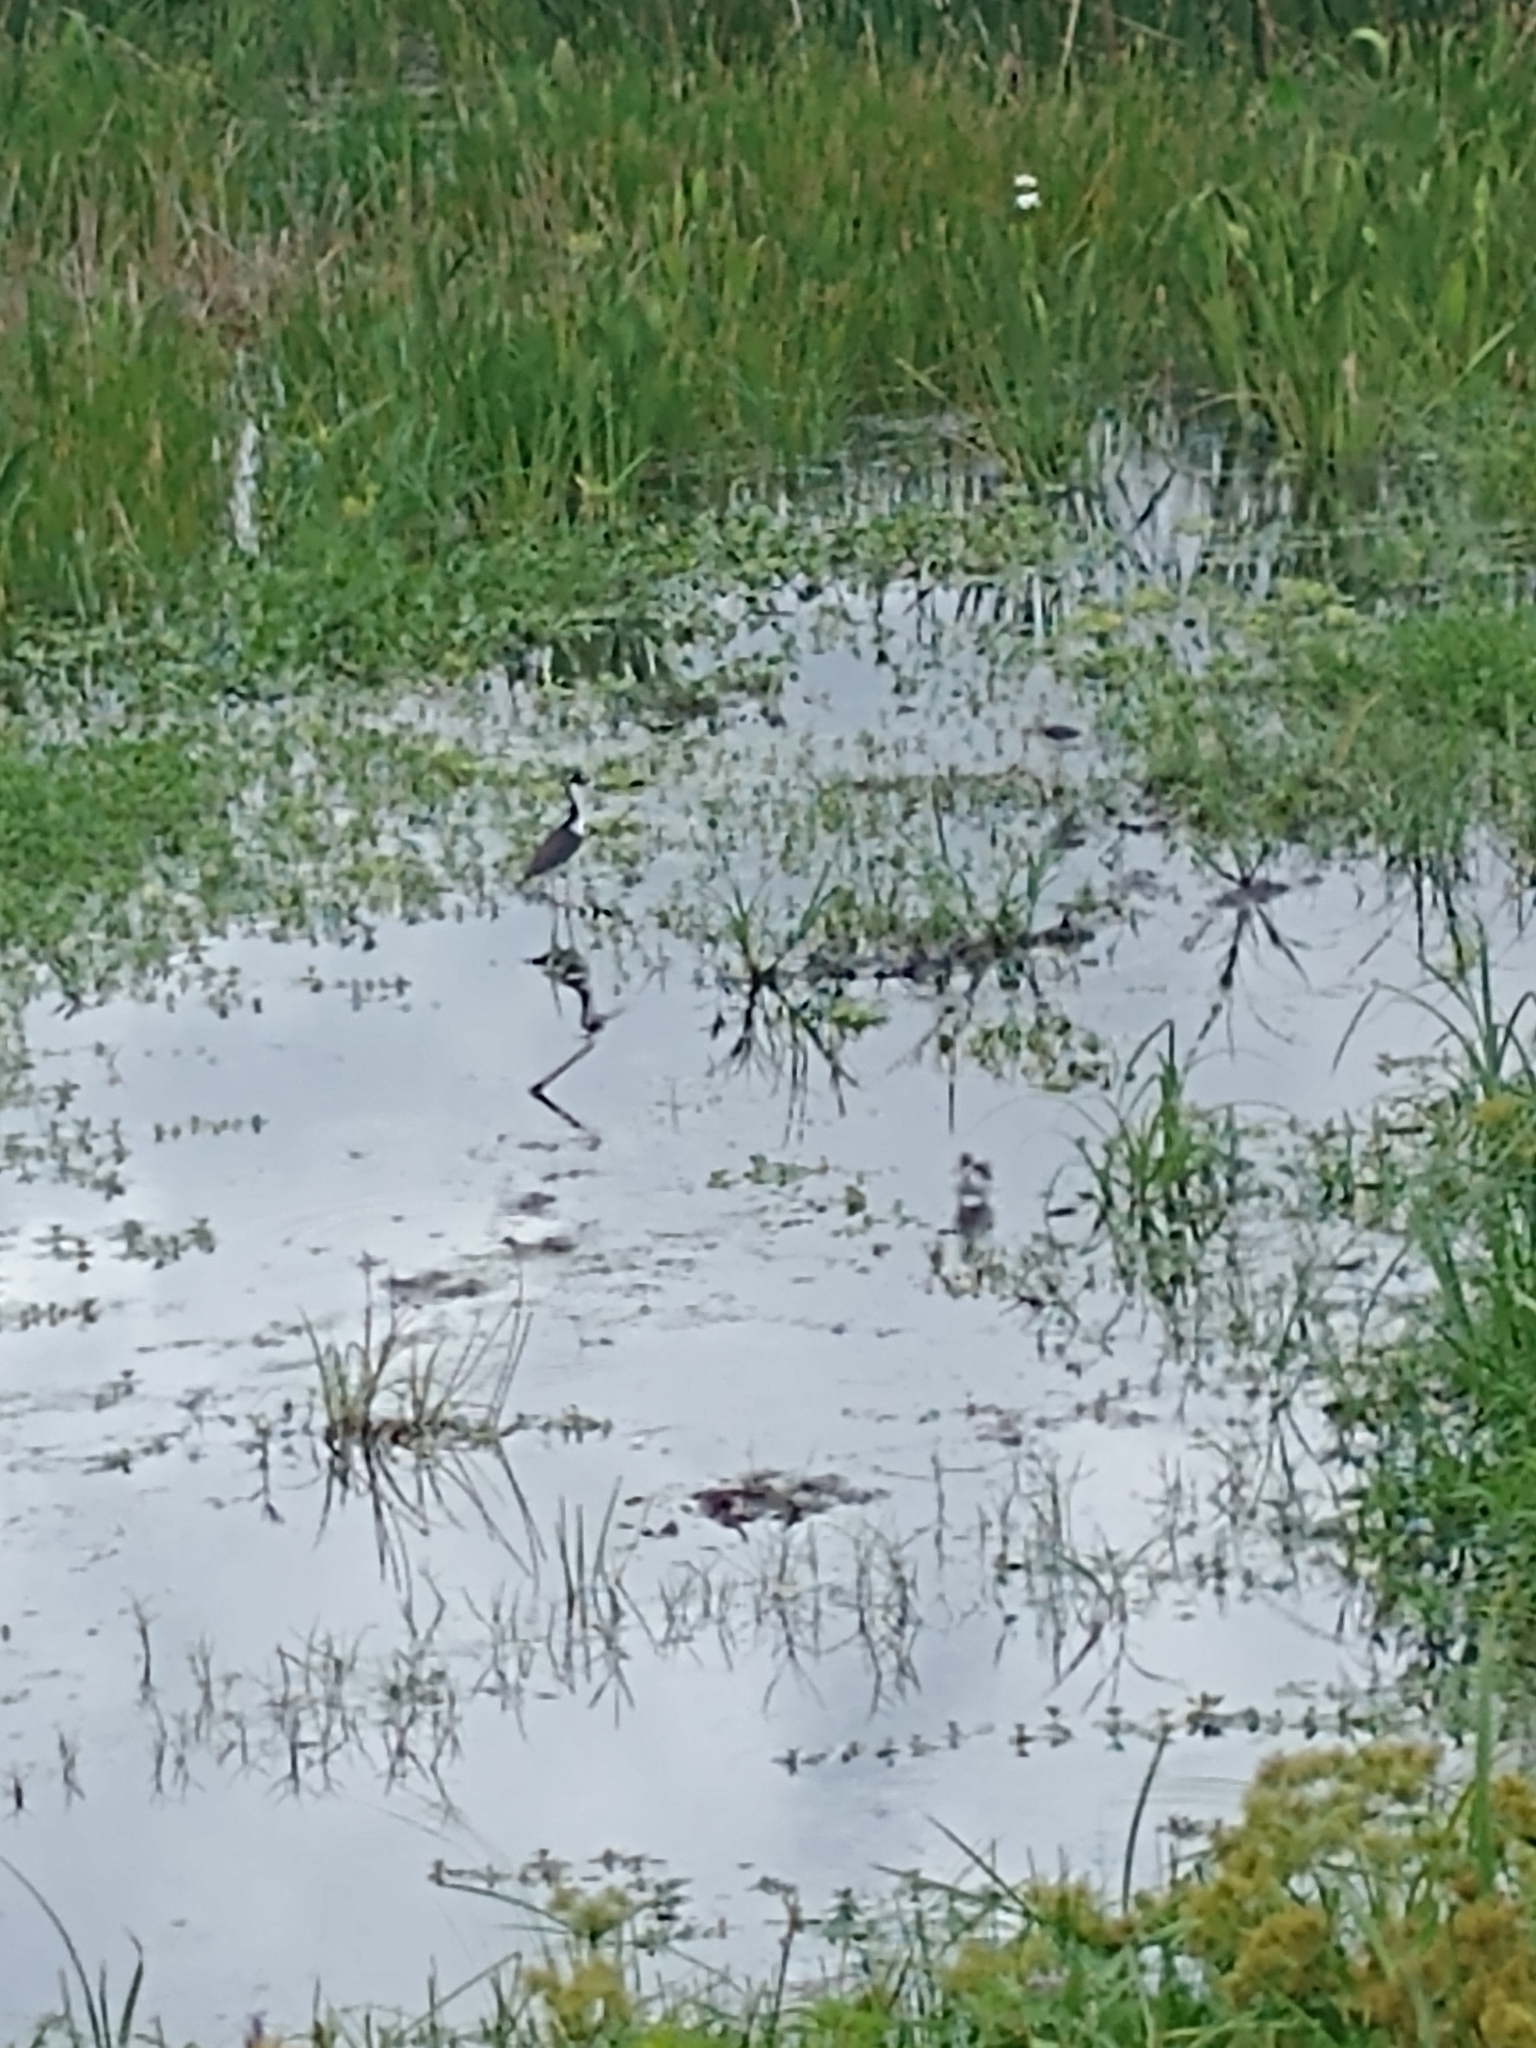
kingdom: Animalia
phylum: Chordata
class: Aves
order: Charadriiformes
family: Recurvirostridae
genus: Himantopus
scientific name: Himantopus mexicanus
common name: Black-necked stilt
